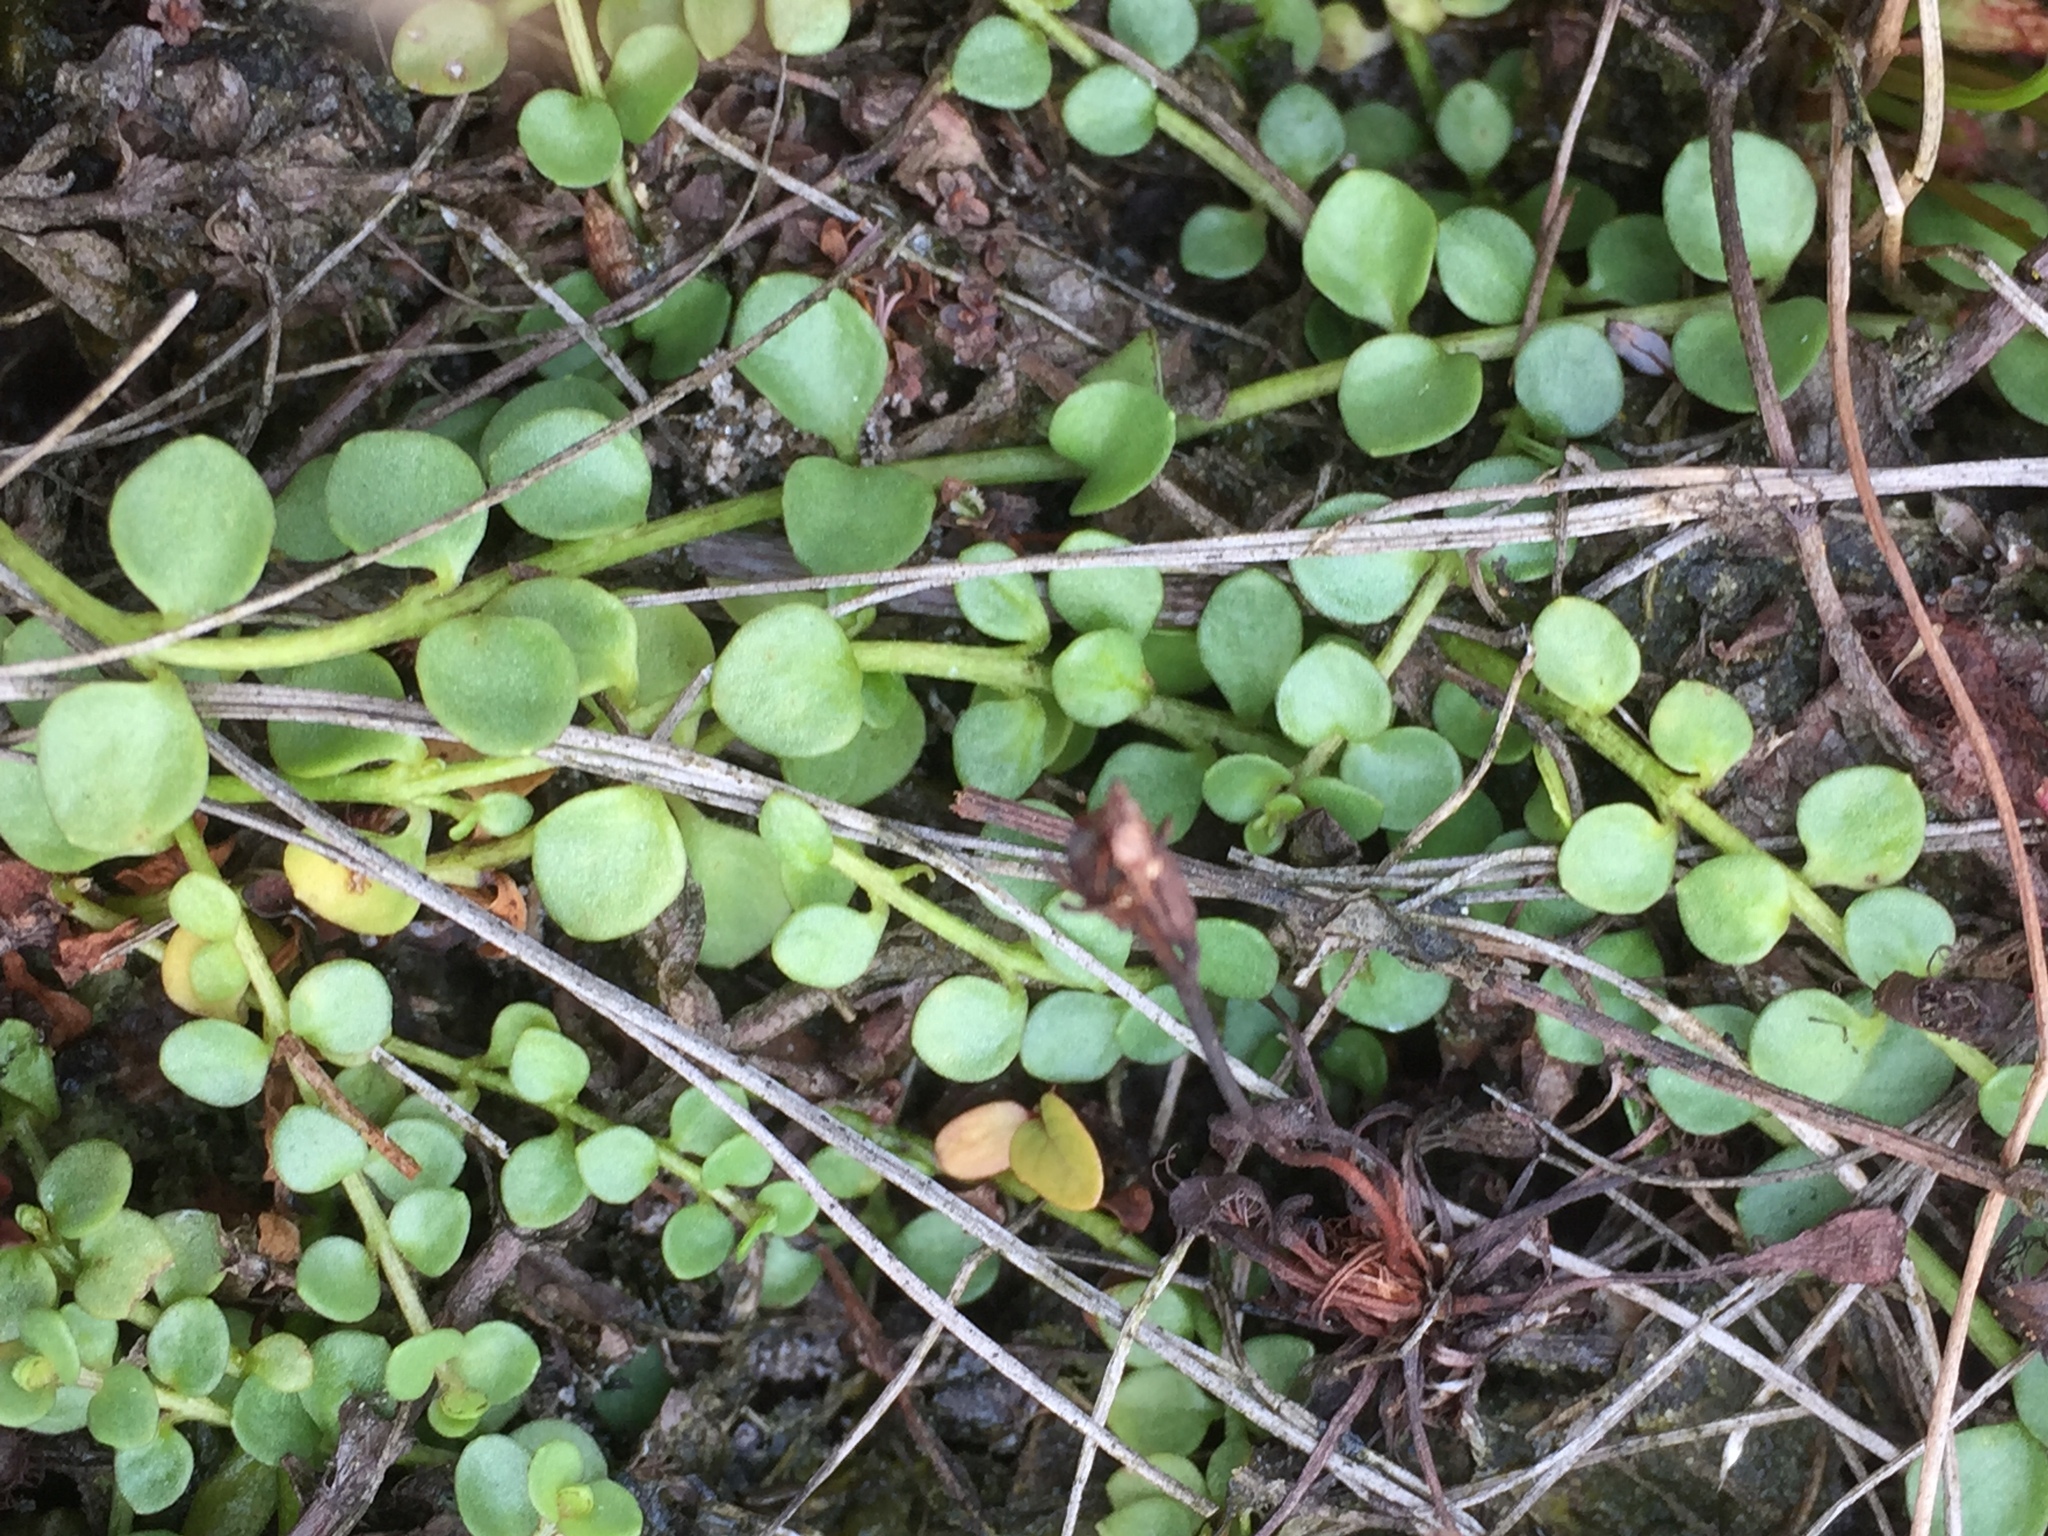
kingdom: Plantae
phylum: Tracheophyta
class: Magnoliopsida
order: Ericales
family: Primulaceae
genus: Lysimachia
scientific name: Lysimachia tenella
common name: European bog pimpernel
